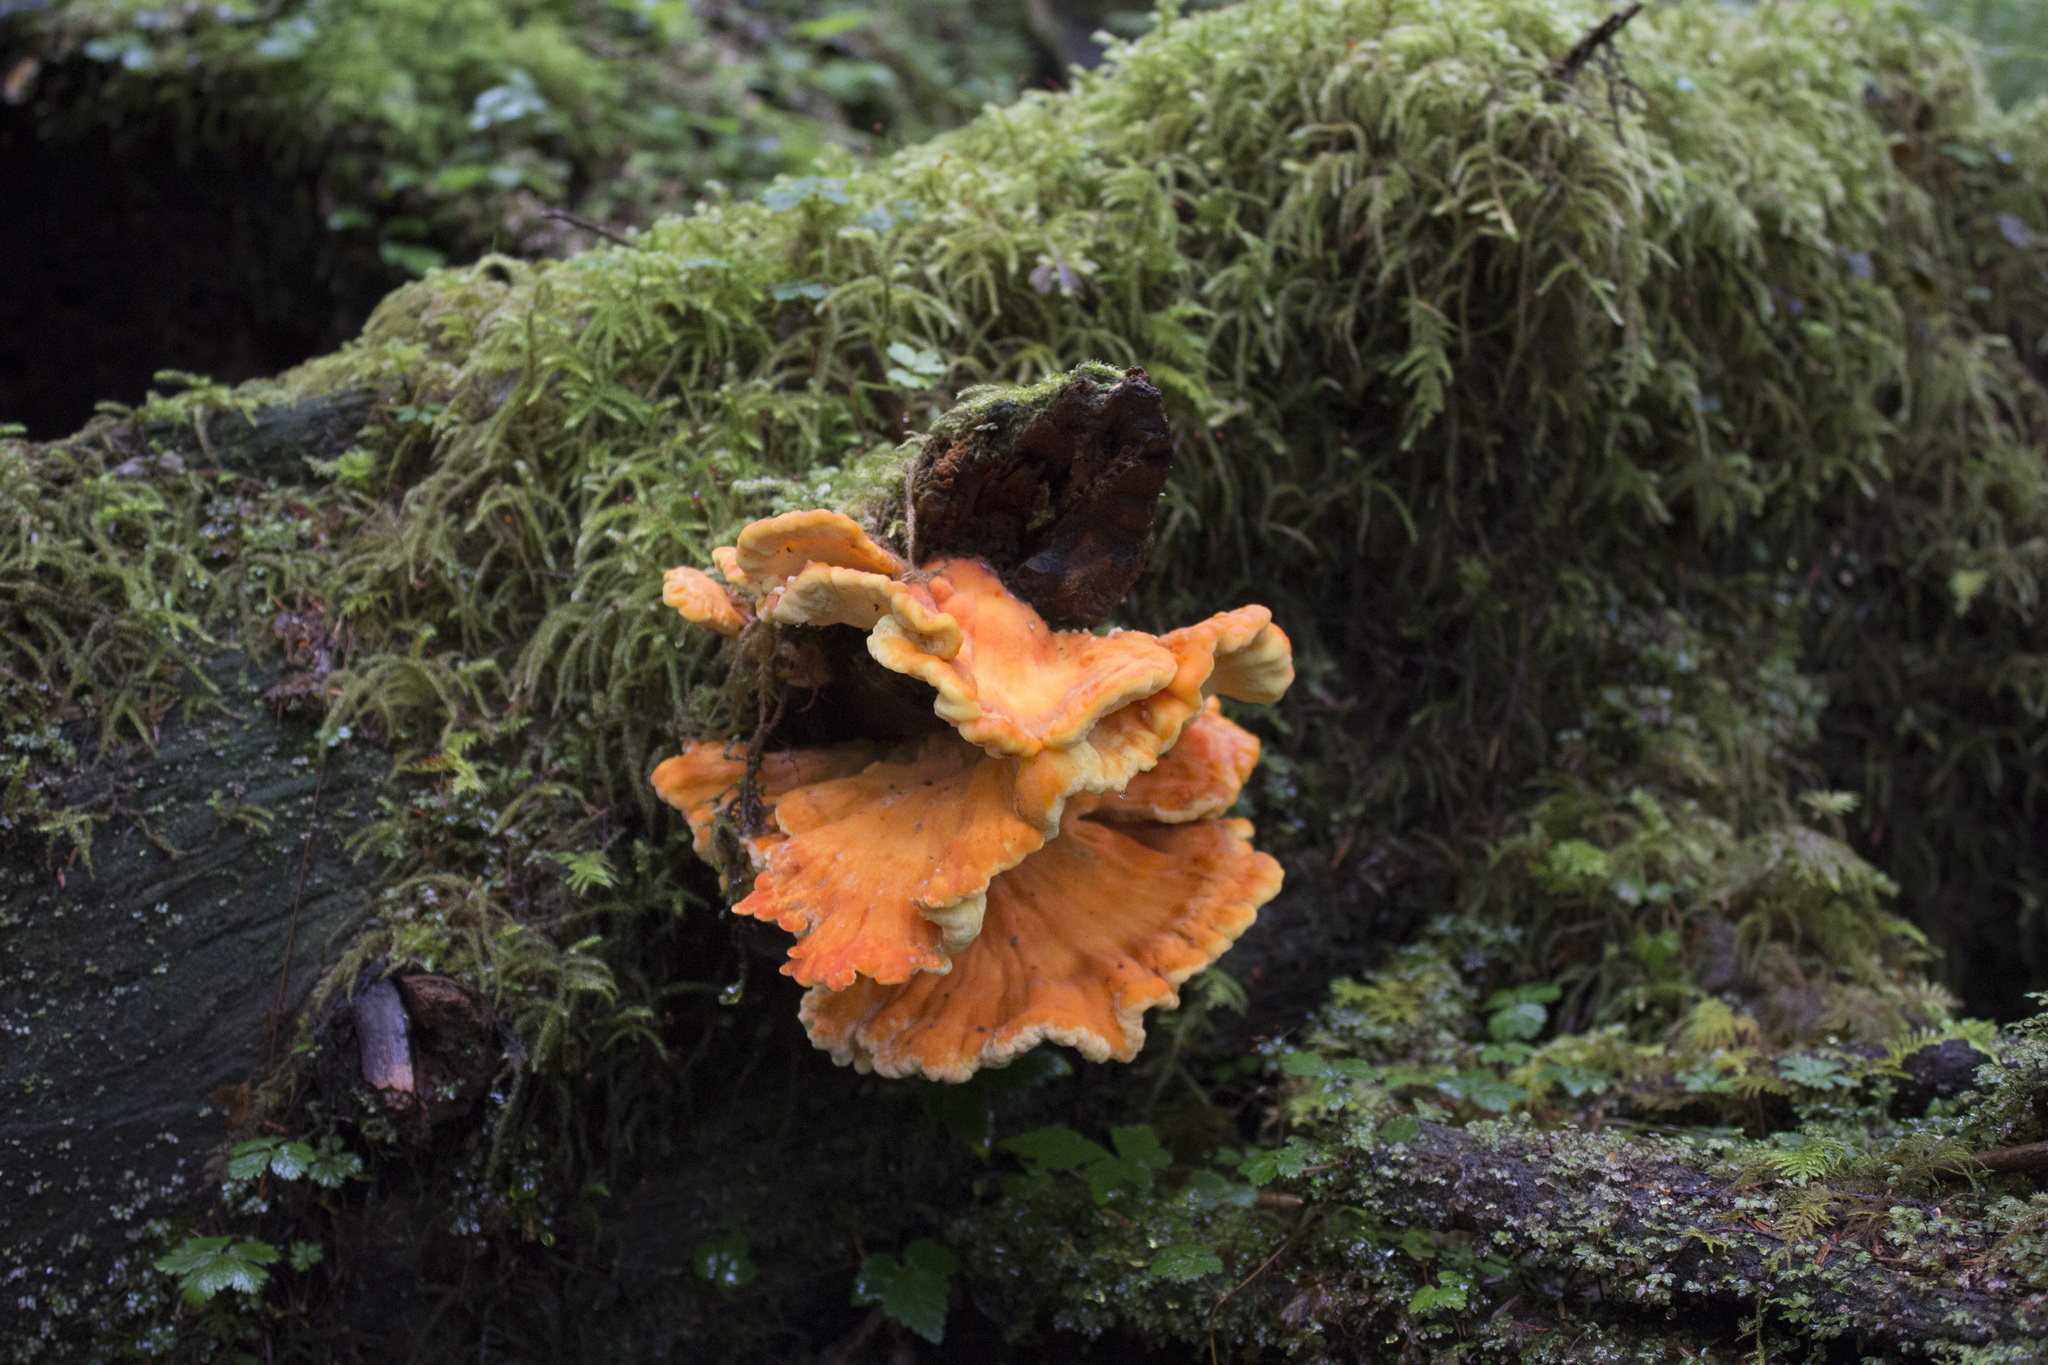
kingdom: Fungi
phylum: Basidiomycota
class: Agaricomycetes
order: Polyporales
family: Laetiporaceae
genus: Laetiporus
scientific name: Laetiporus conifericola
